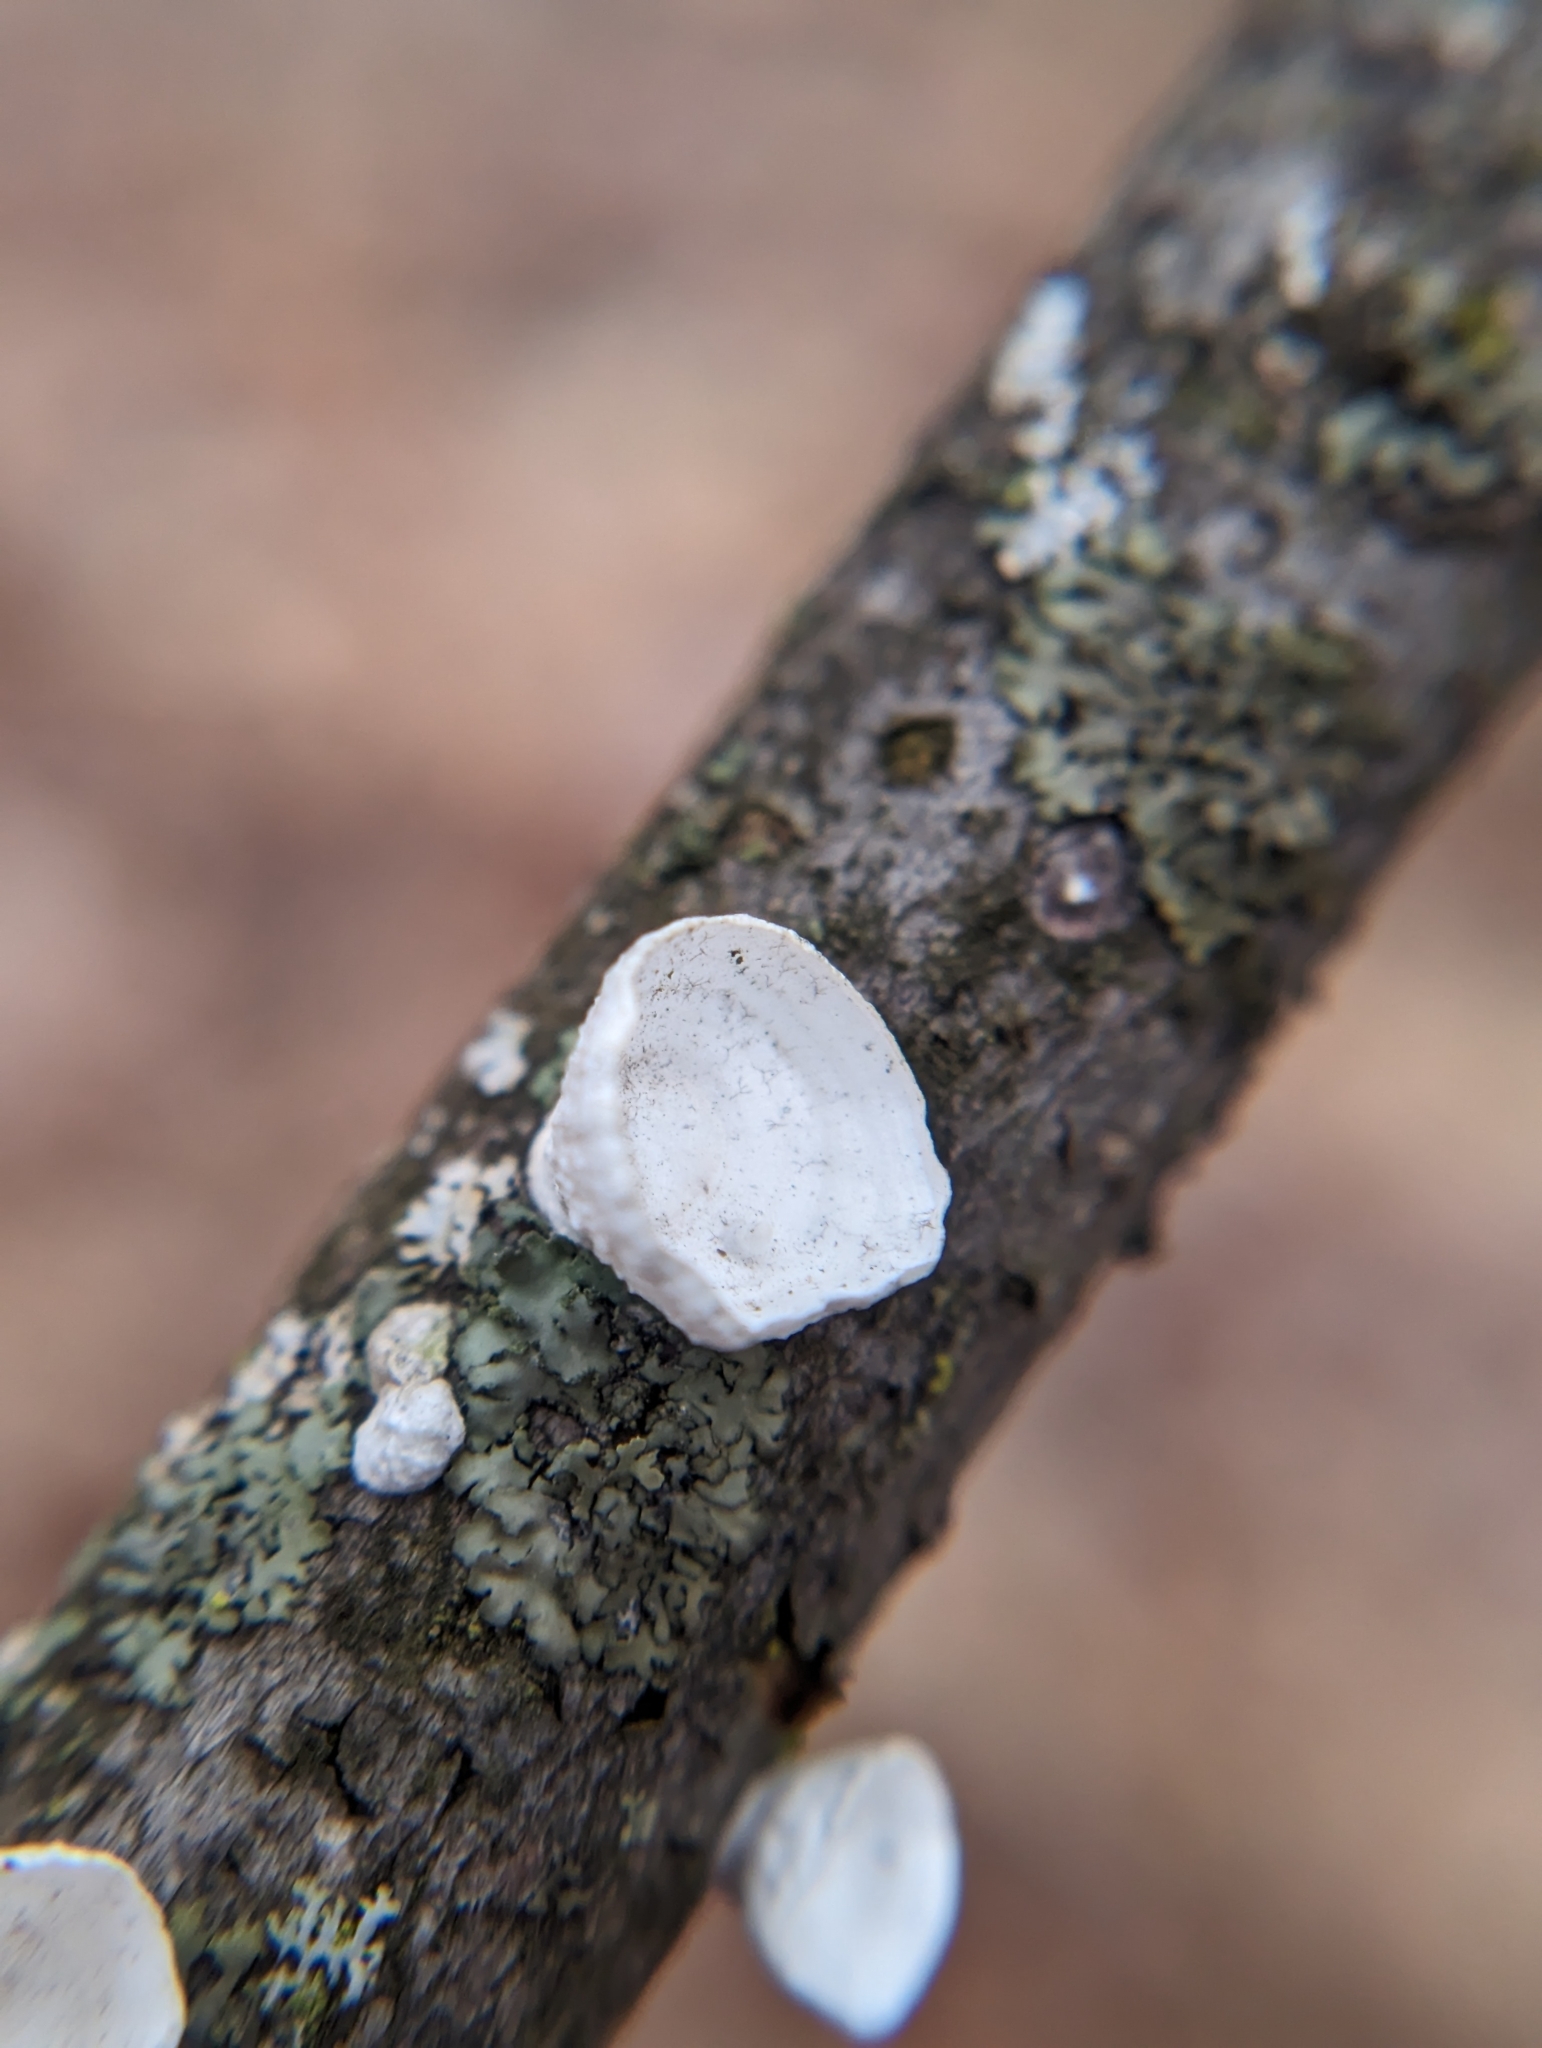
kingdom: Fungi
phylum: Basidiomycota
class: Agaricomycetes
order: Polyporales
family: Polyporaceae
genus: Poronidulus
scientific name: Poronidulus conchifer
